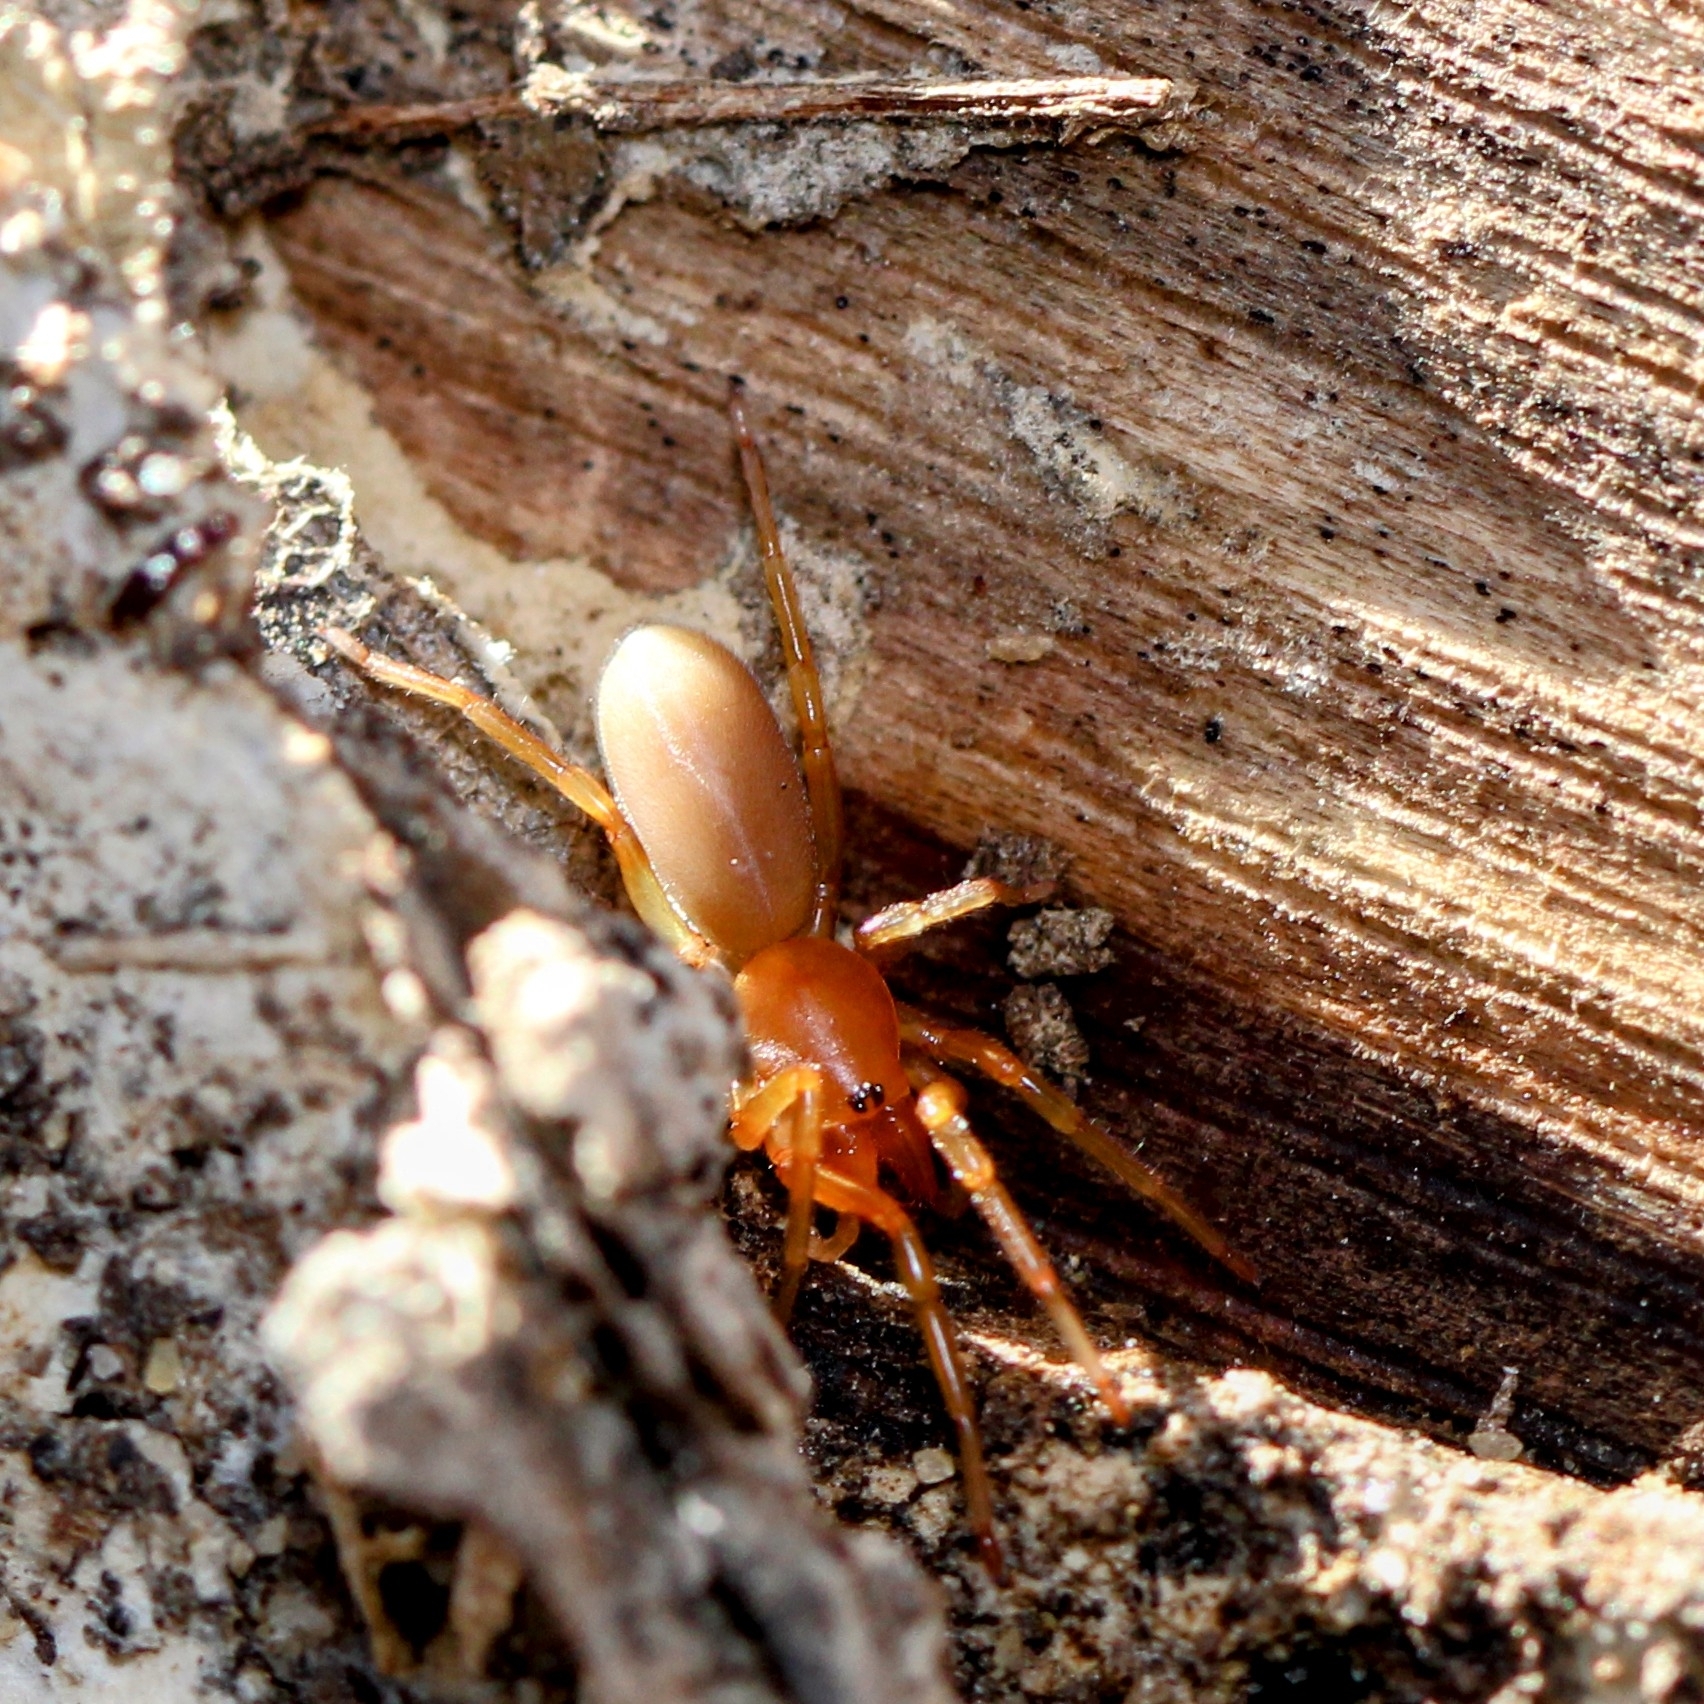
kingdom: Animalia
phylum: Arthropoda
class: Arachnida
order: Araneae
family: Dysderidae
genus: Dysdera
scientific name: Dysdera crocata
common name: Woodlouse spider
